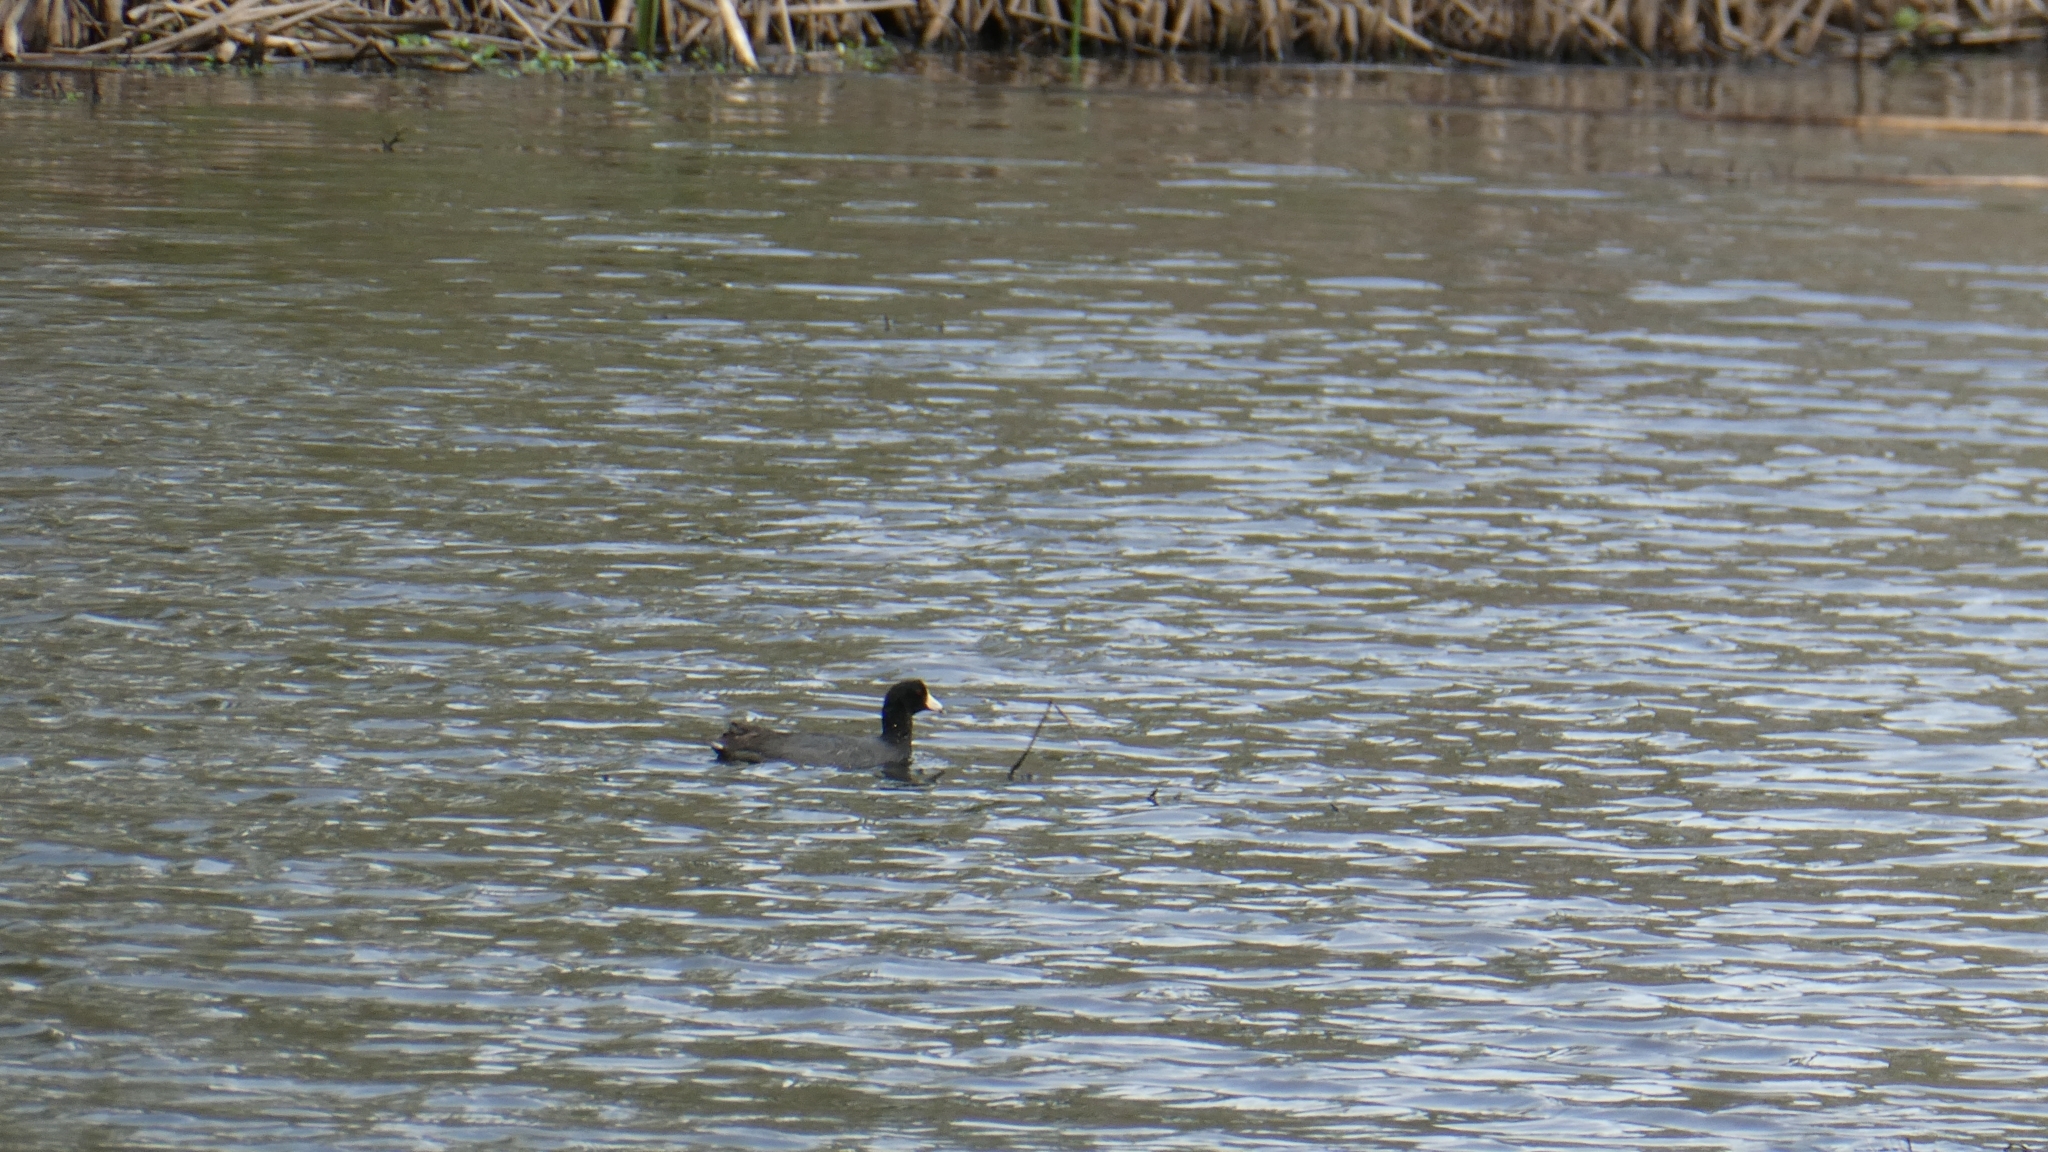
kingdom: Animalia
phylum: Chordata
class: Aves
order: Gruiformes
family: Rallidae
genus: Fulica
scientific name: Fulica americana
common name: American coot
